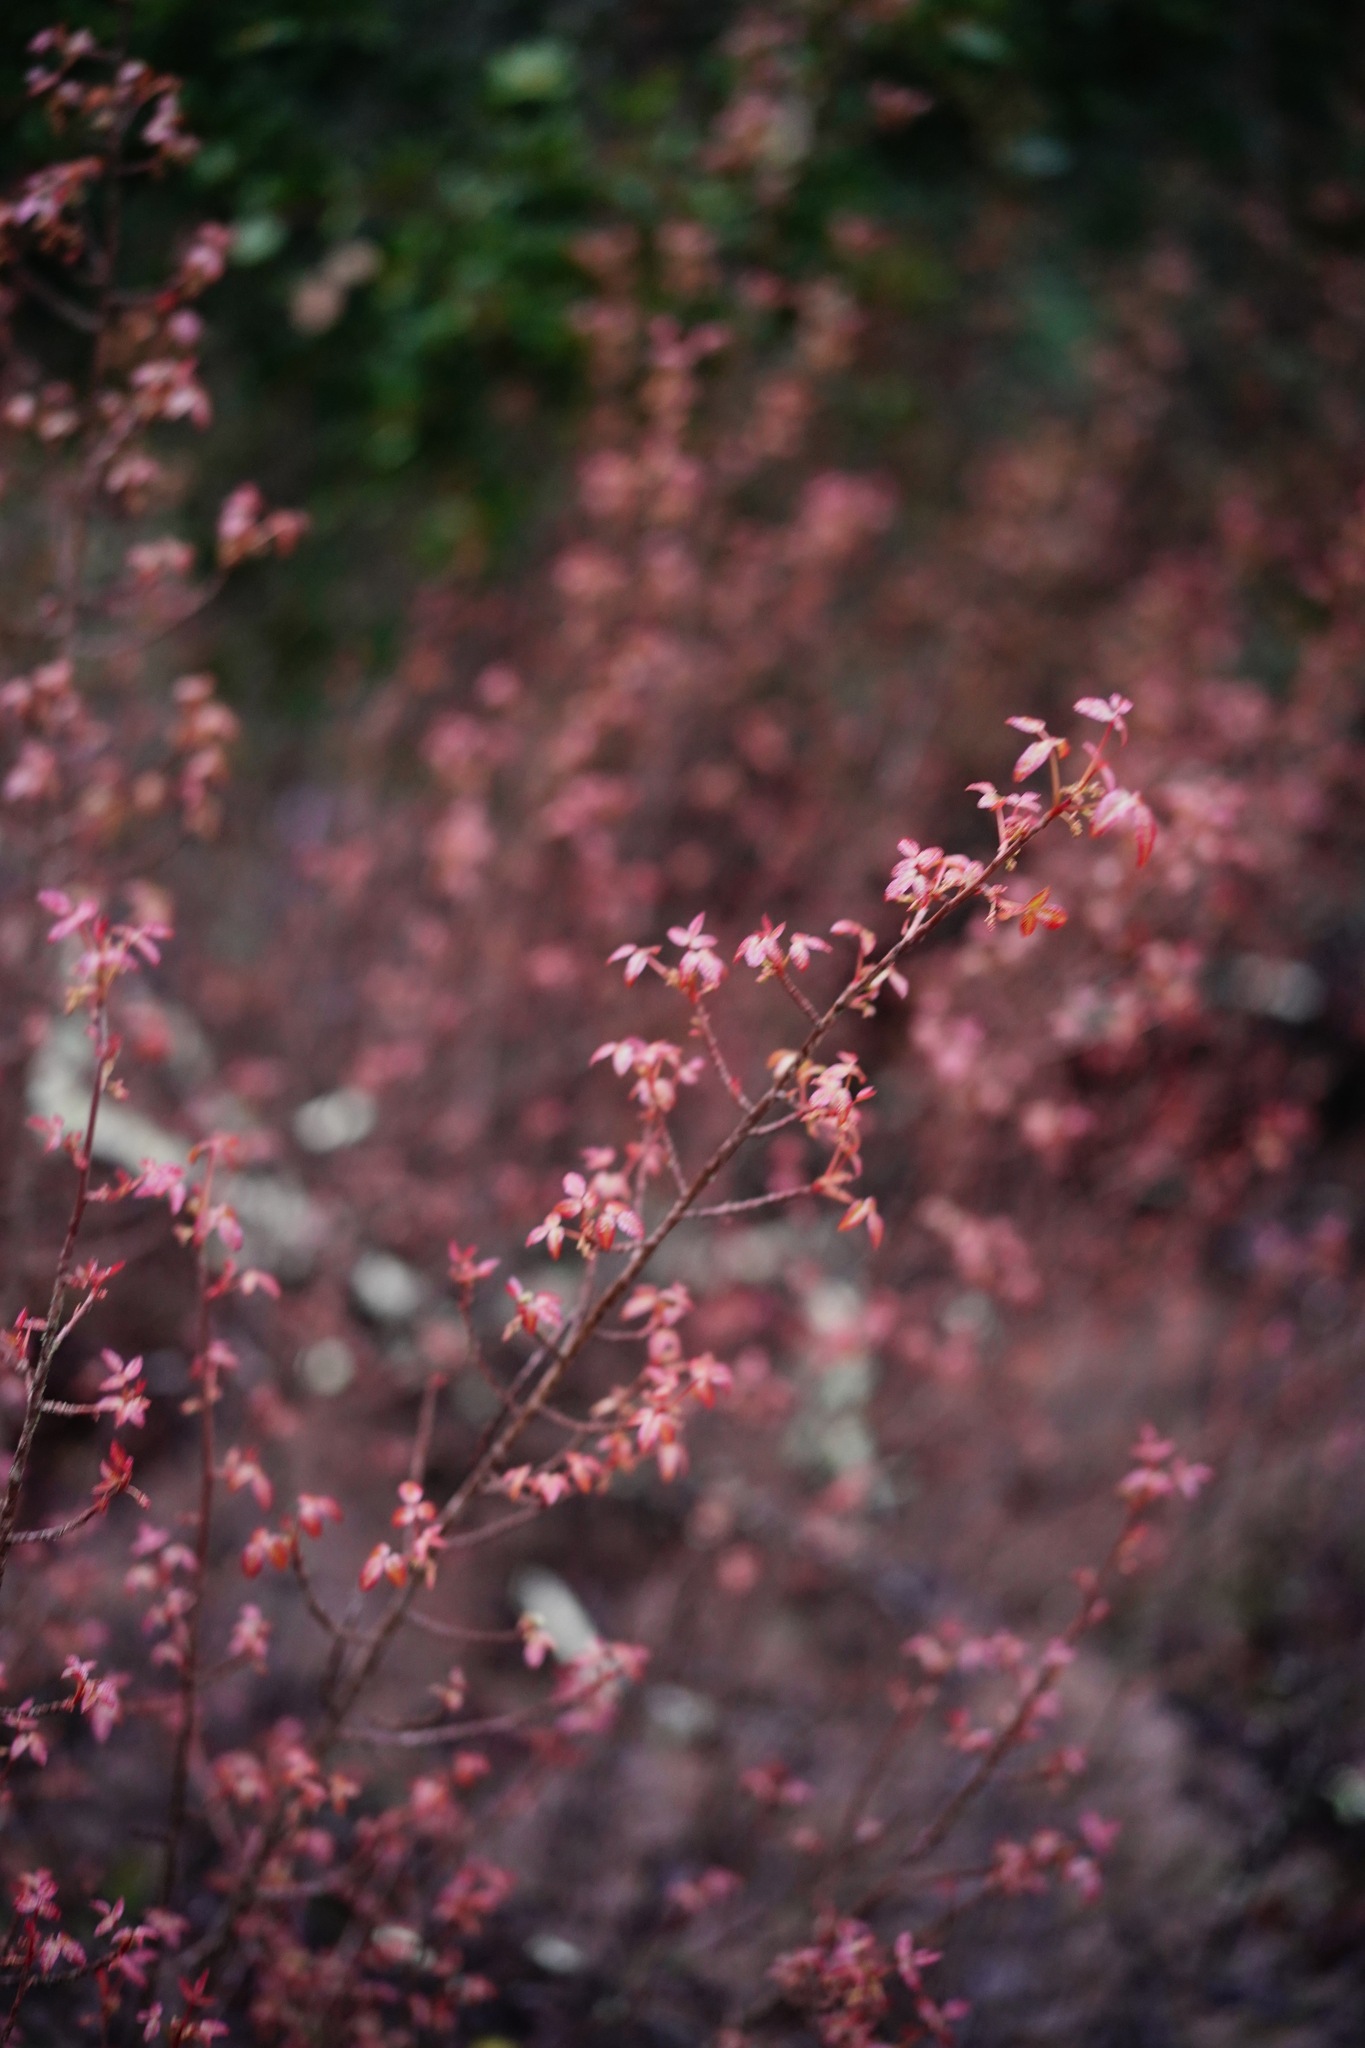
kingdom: Plantae
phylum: Tracheophyta
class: Magnoliopsida
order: Sapindales
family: Anacardiaceae
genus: Toxicodendron
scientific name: Toxicodendron diversilobum
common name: Pacific poison-oak
